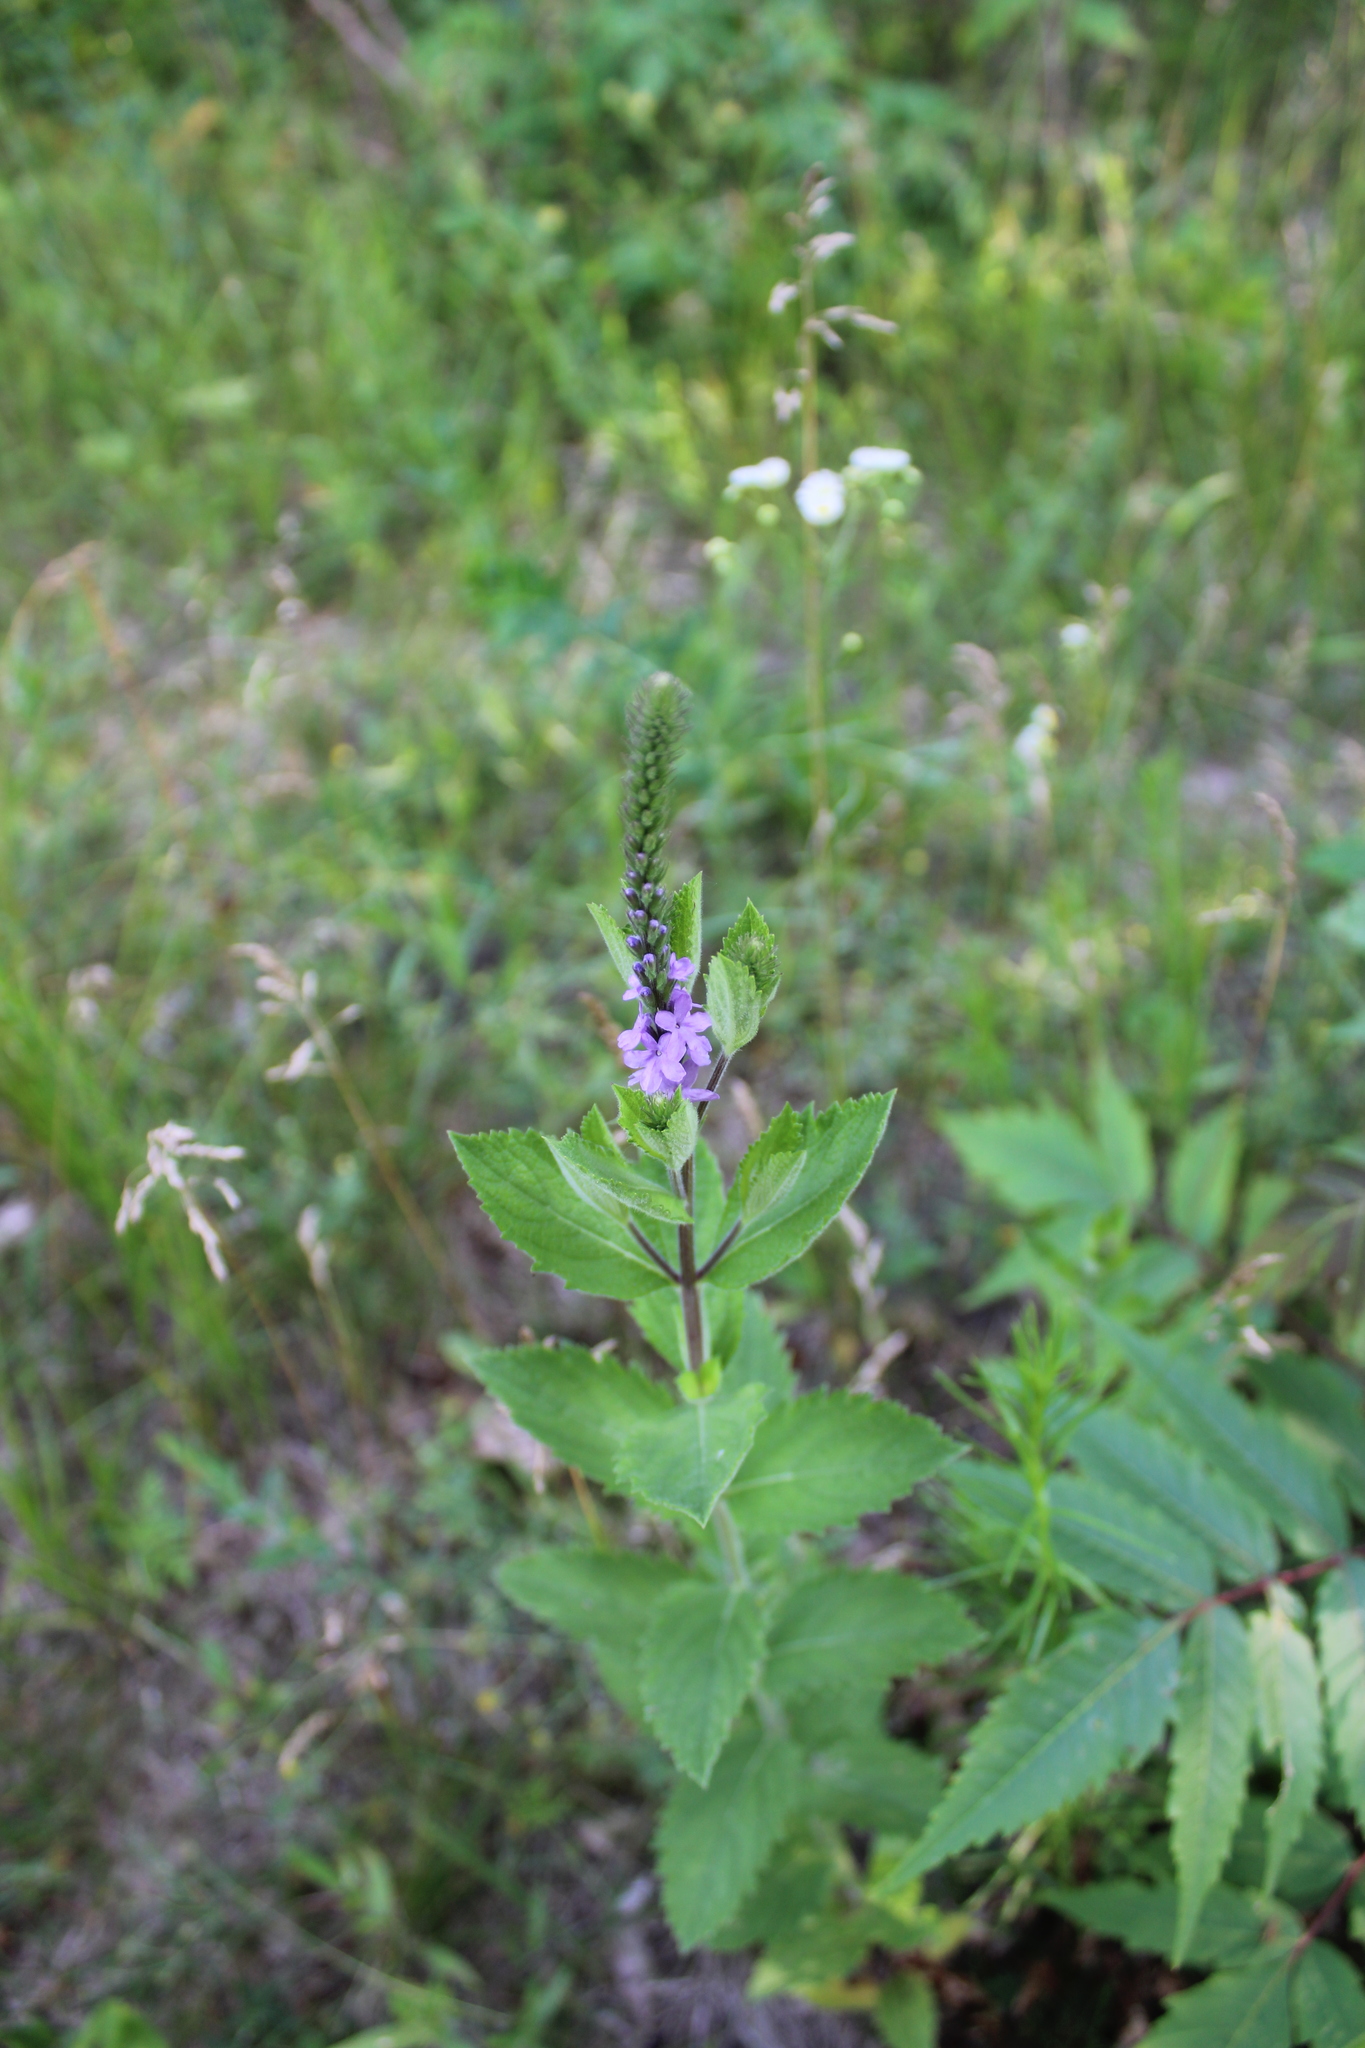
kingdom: Plantae
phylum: Tracheophyta
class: Magnoliopsida
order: Lamiales
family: Verbenaceae
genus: Verbena
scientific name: Verbena stricta
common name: Hoary vervain
